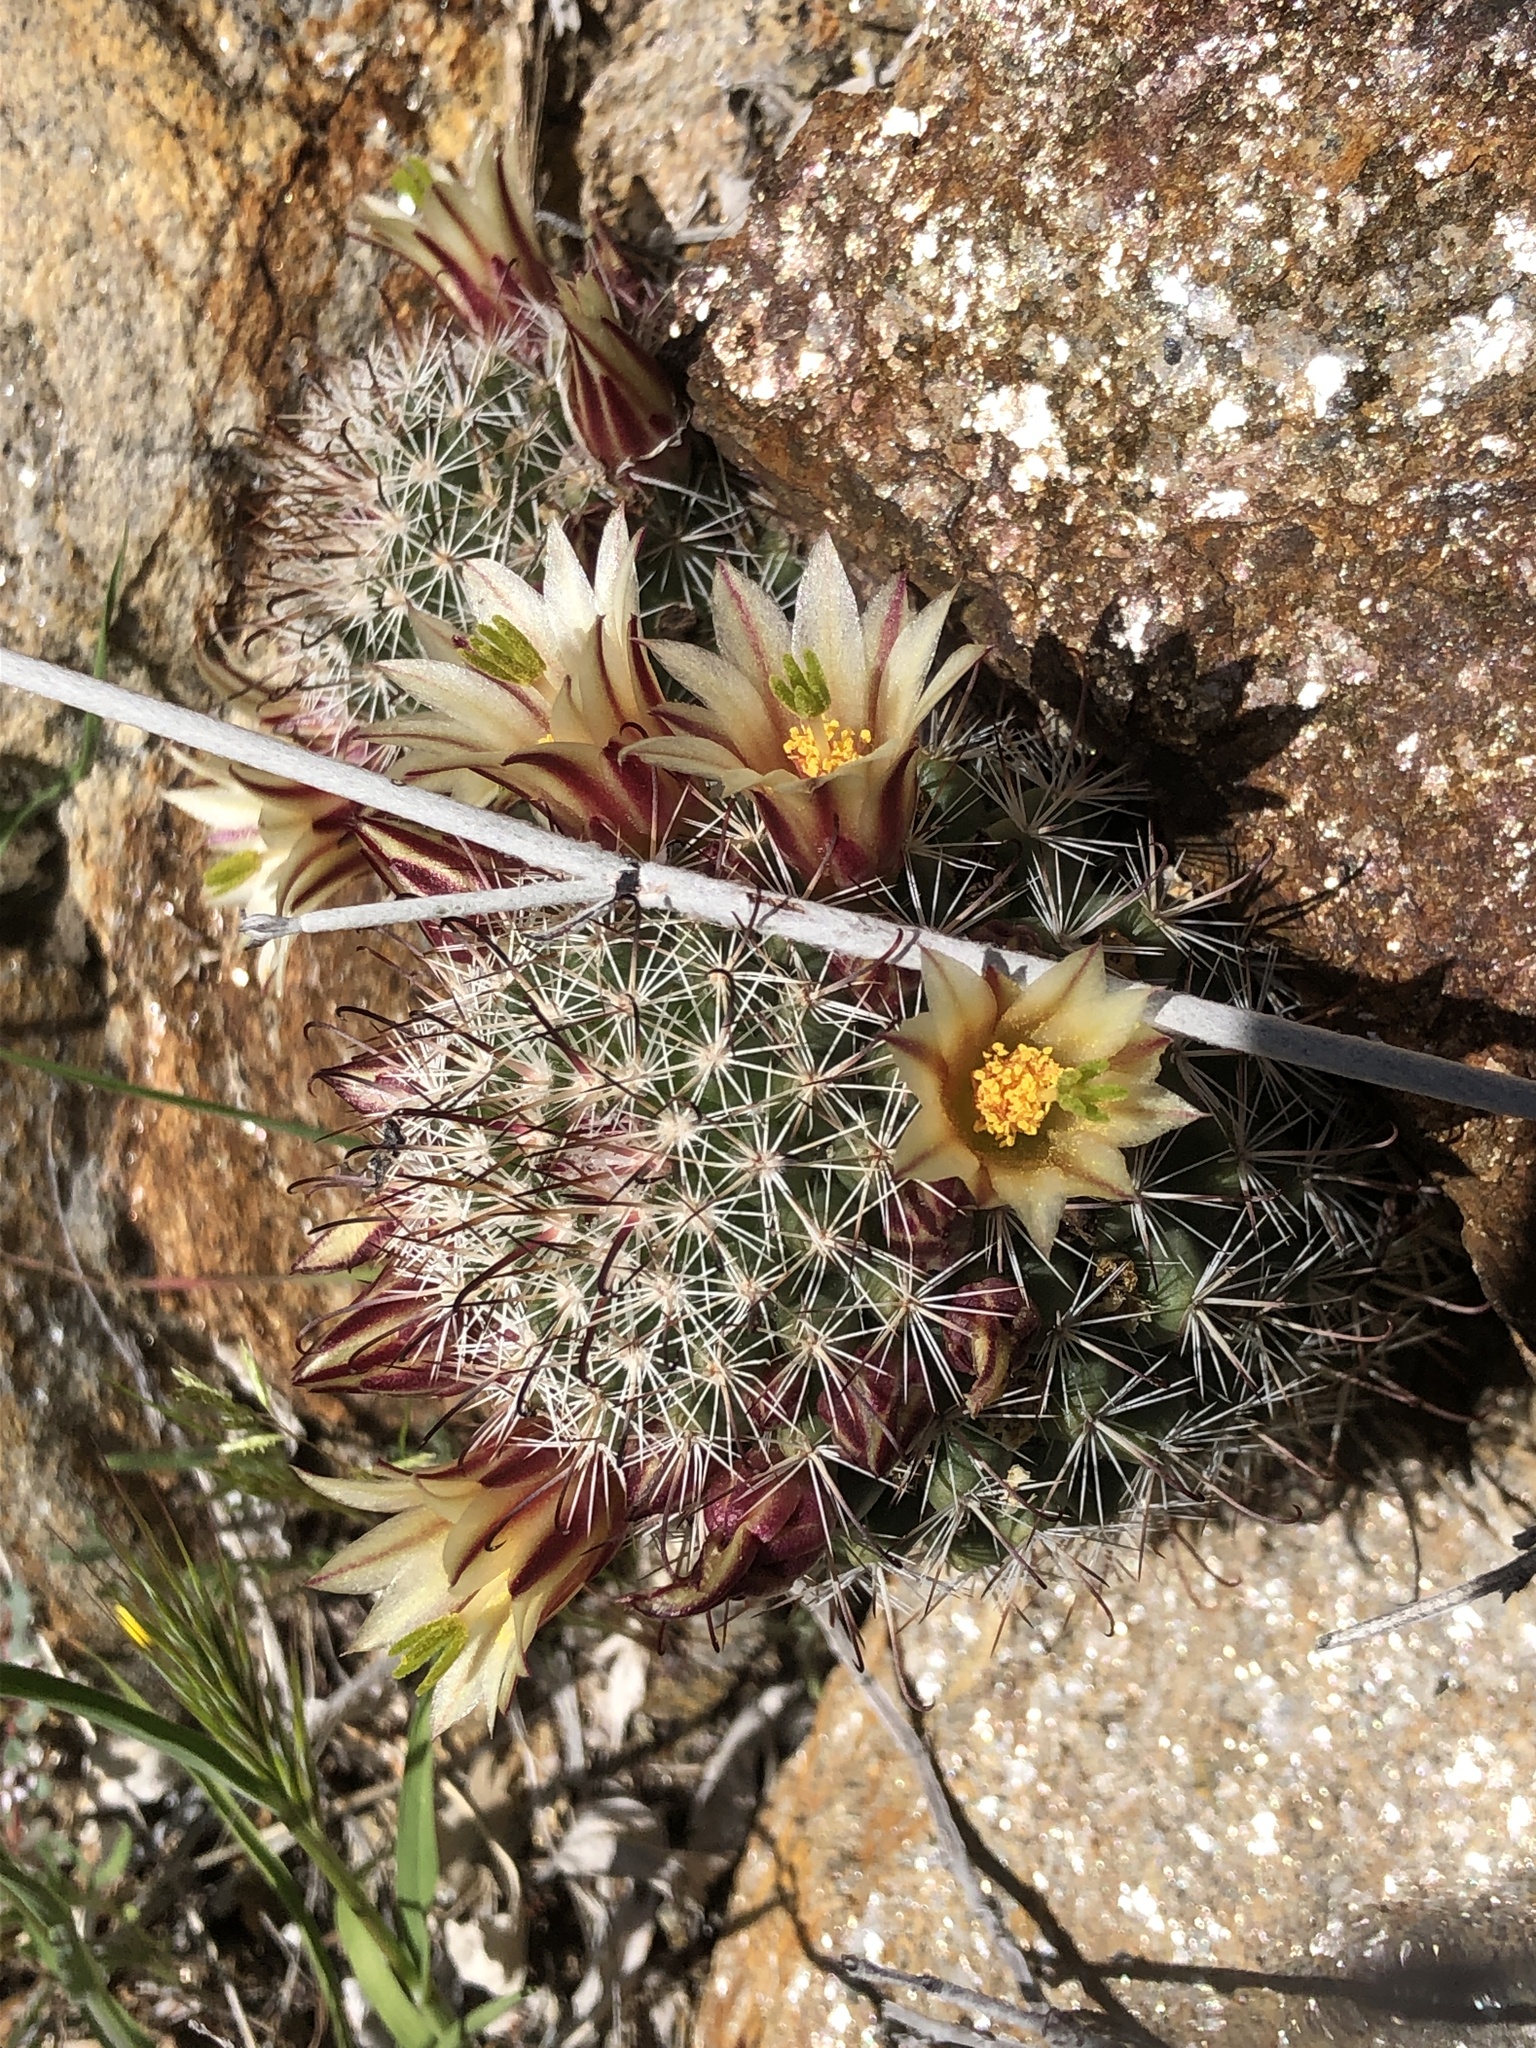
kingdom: Plantae
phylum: Tracheophyta
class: Magnoliopsida
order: Caryophyllales
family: Cactaceae
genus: Cochemiea
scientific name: Cochemiea dioica
